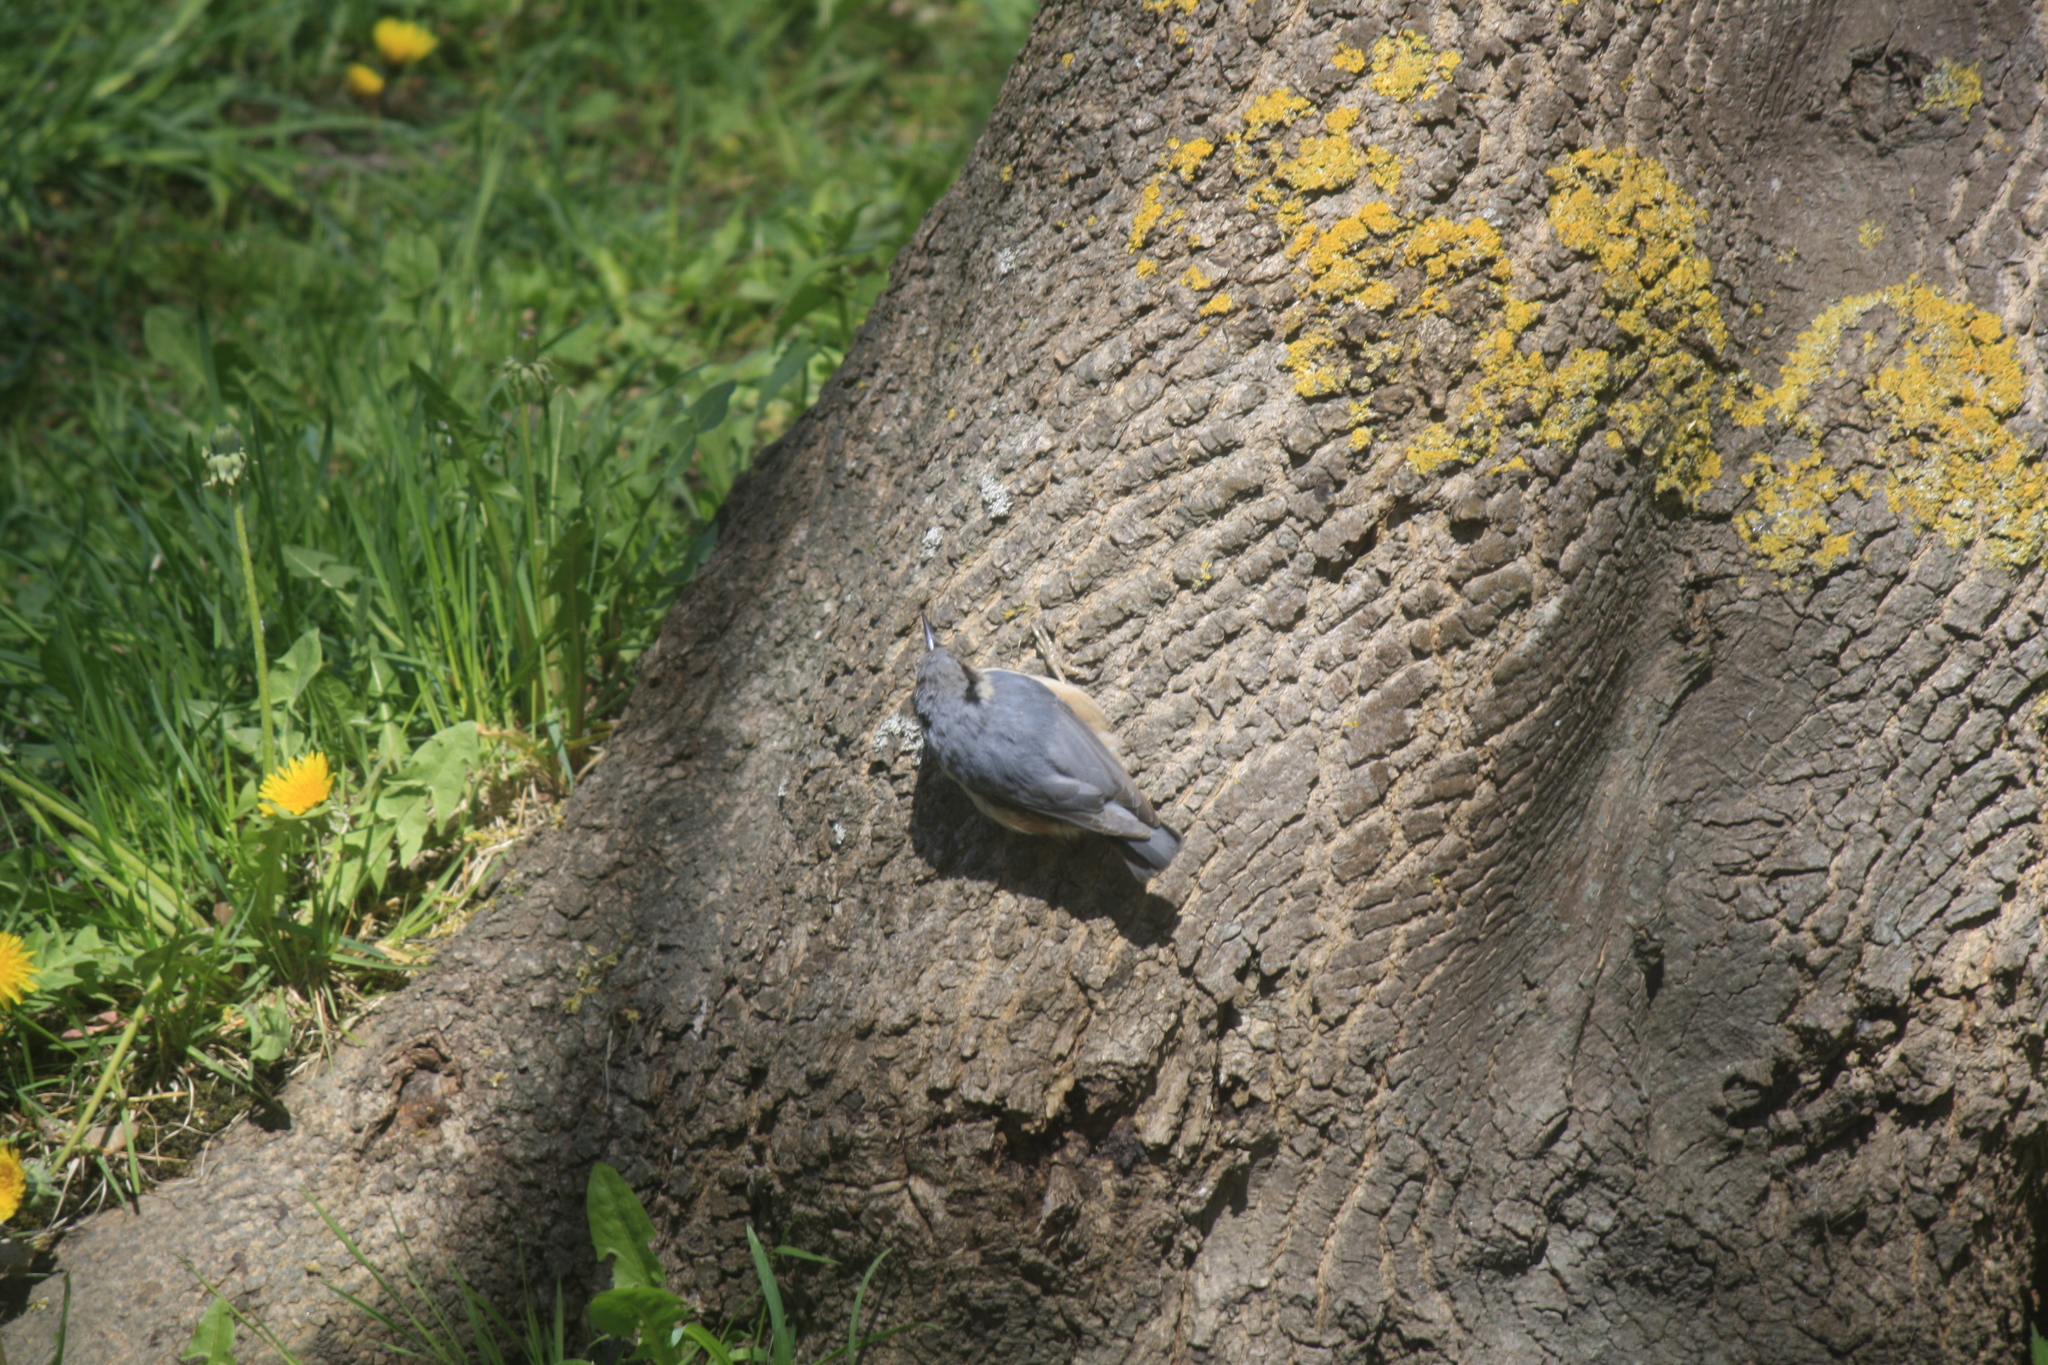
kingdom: Animalia
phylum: Chordata
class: Aves
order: Passeriformes
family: Sittidae
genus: Sitta
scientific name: Sitta europaea
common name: Eurasian nuthatch
